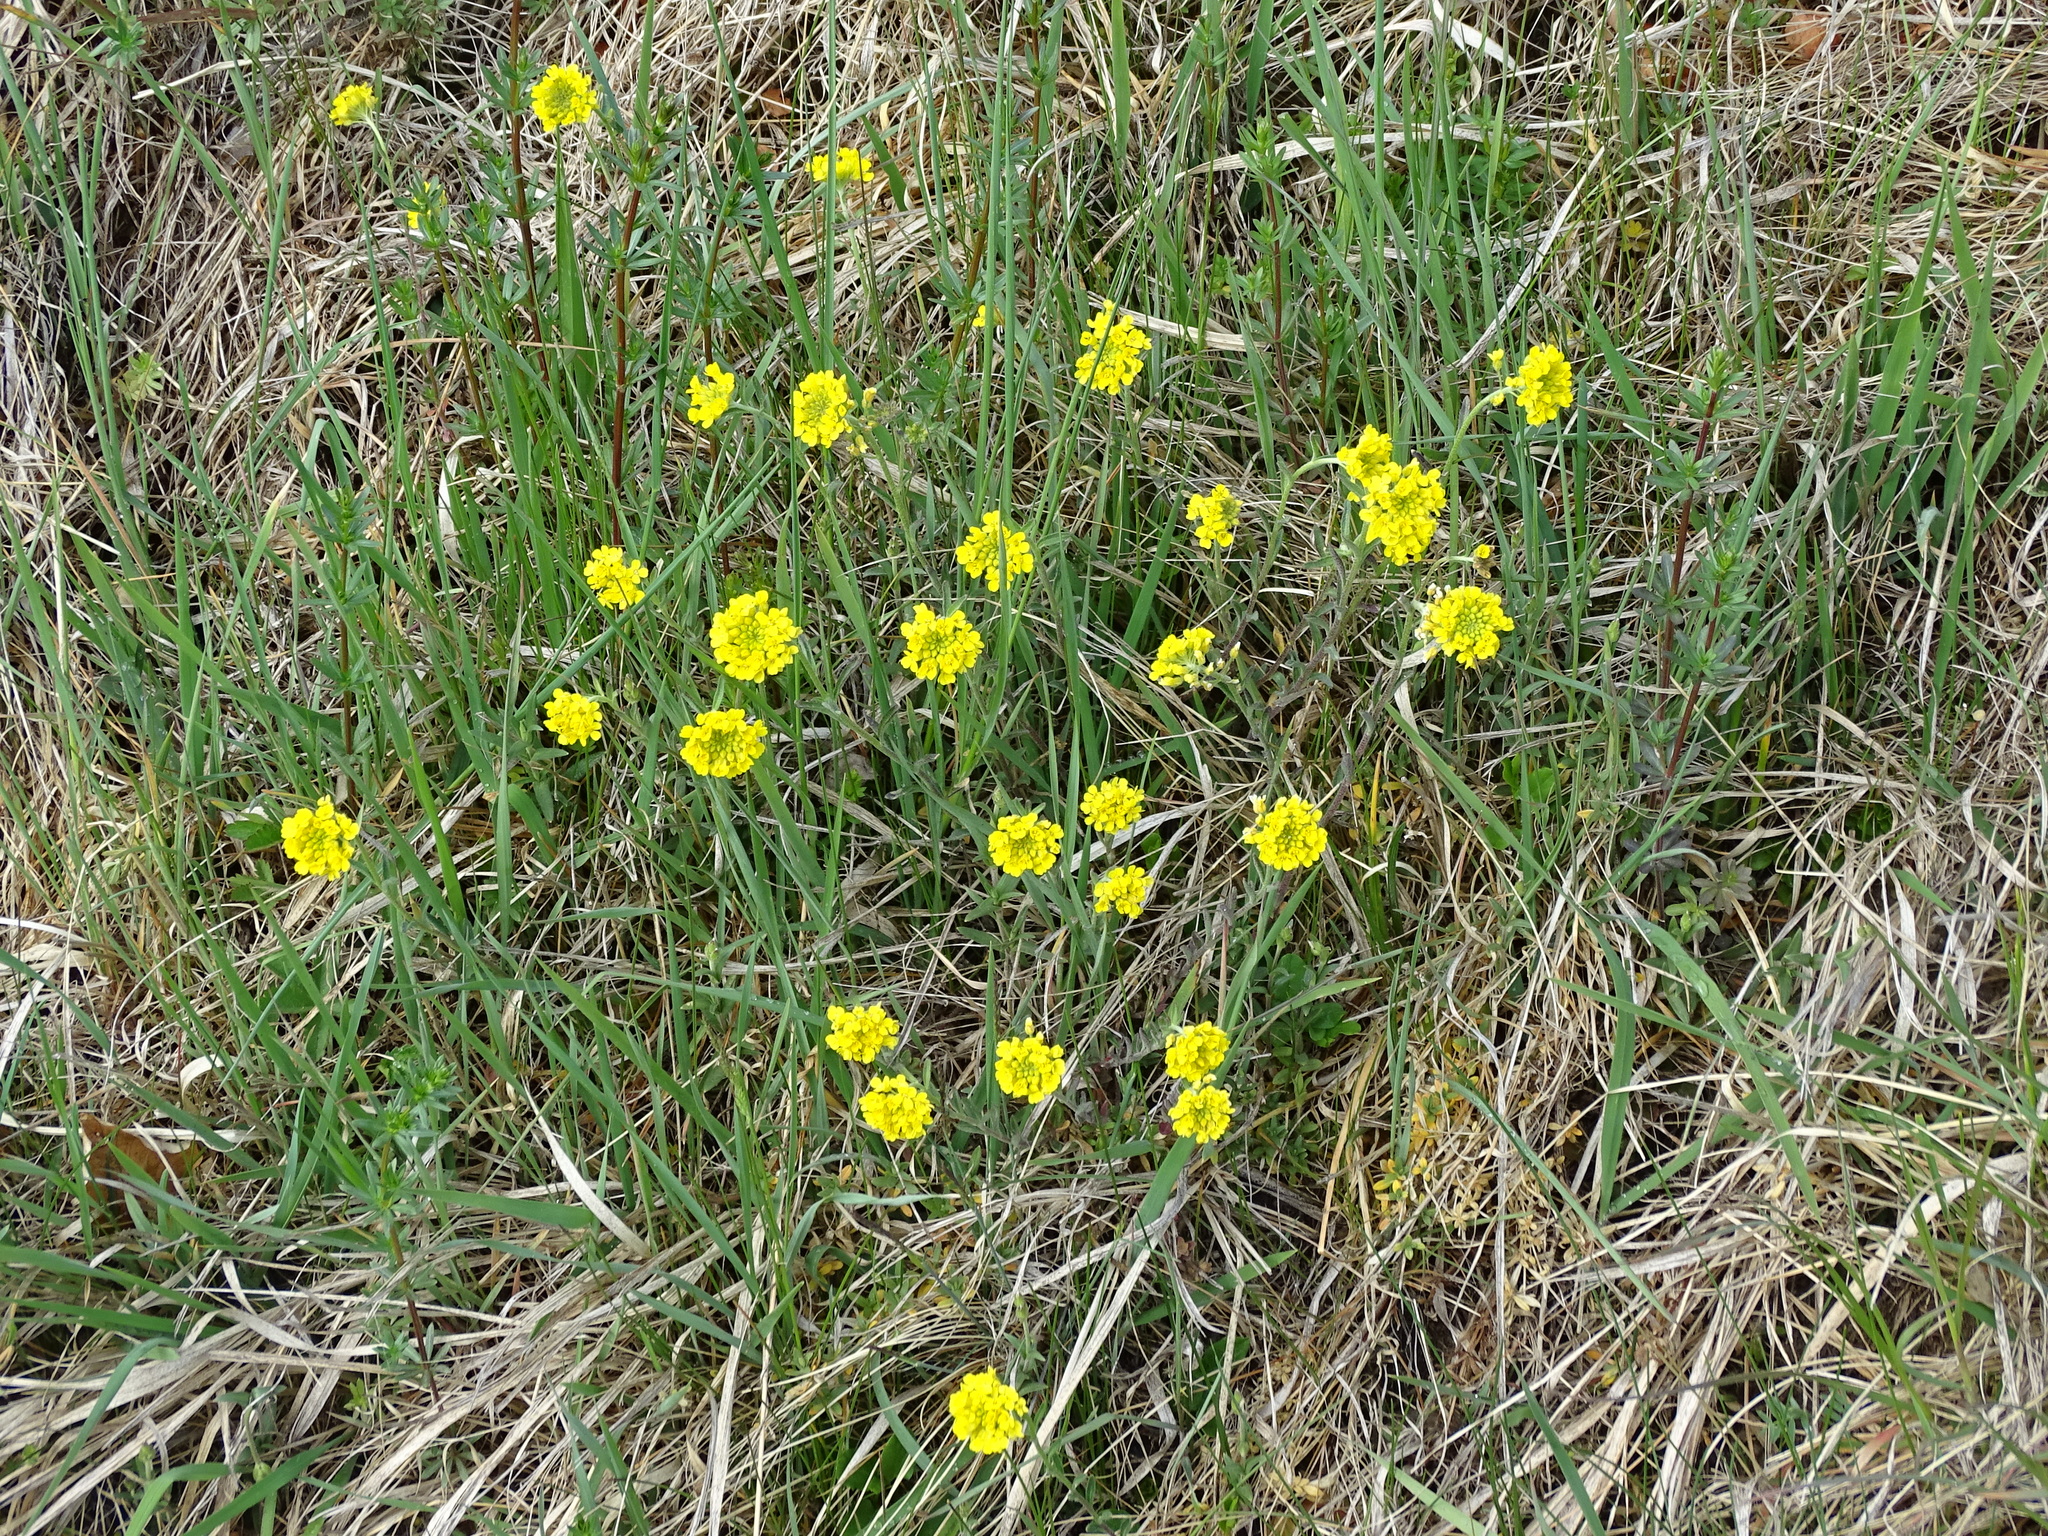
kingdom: Plantae
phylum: Tracheophyta
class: Magnoliopsida
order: Brassicales
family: Brassicaceae
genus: Alyssum
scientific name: Alyssum repens
